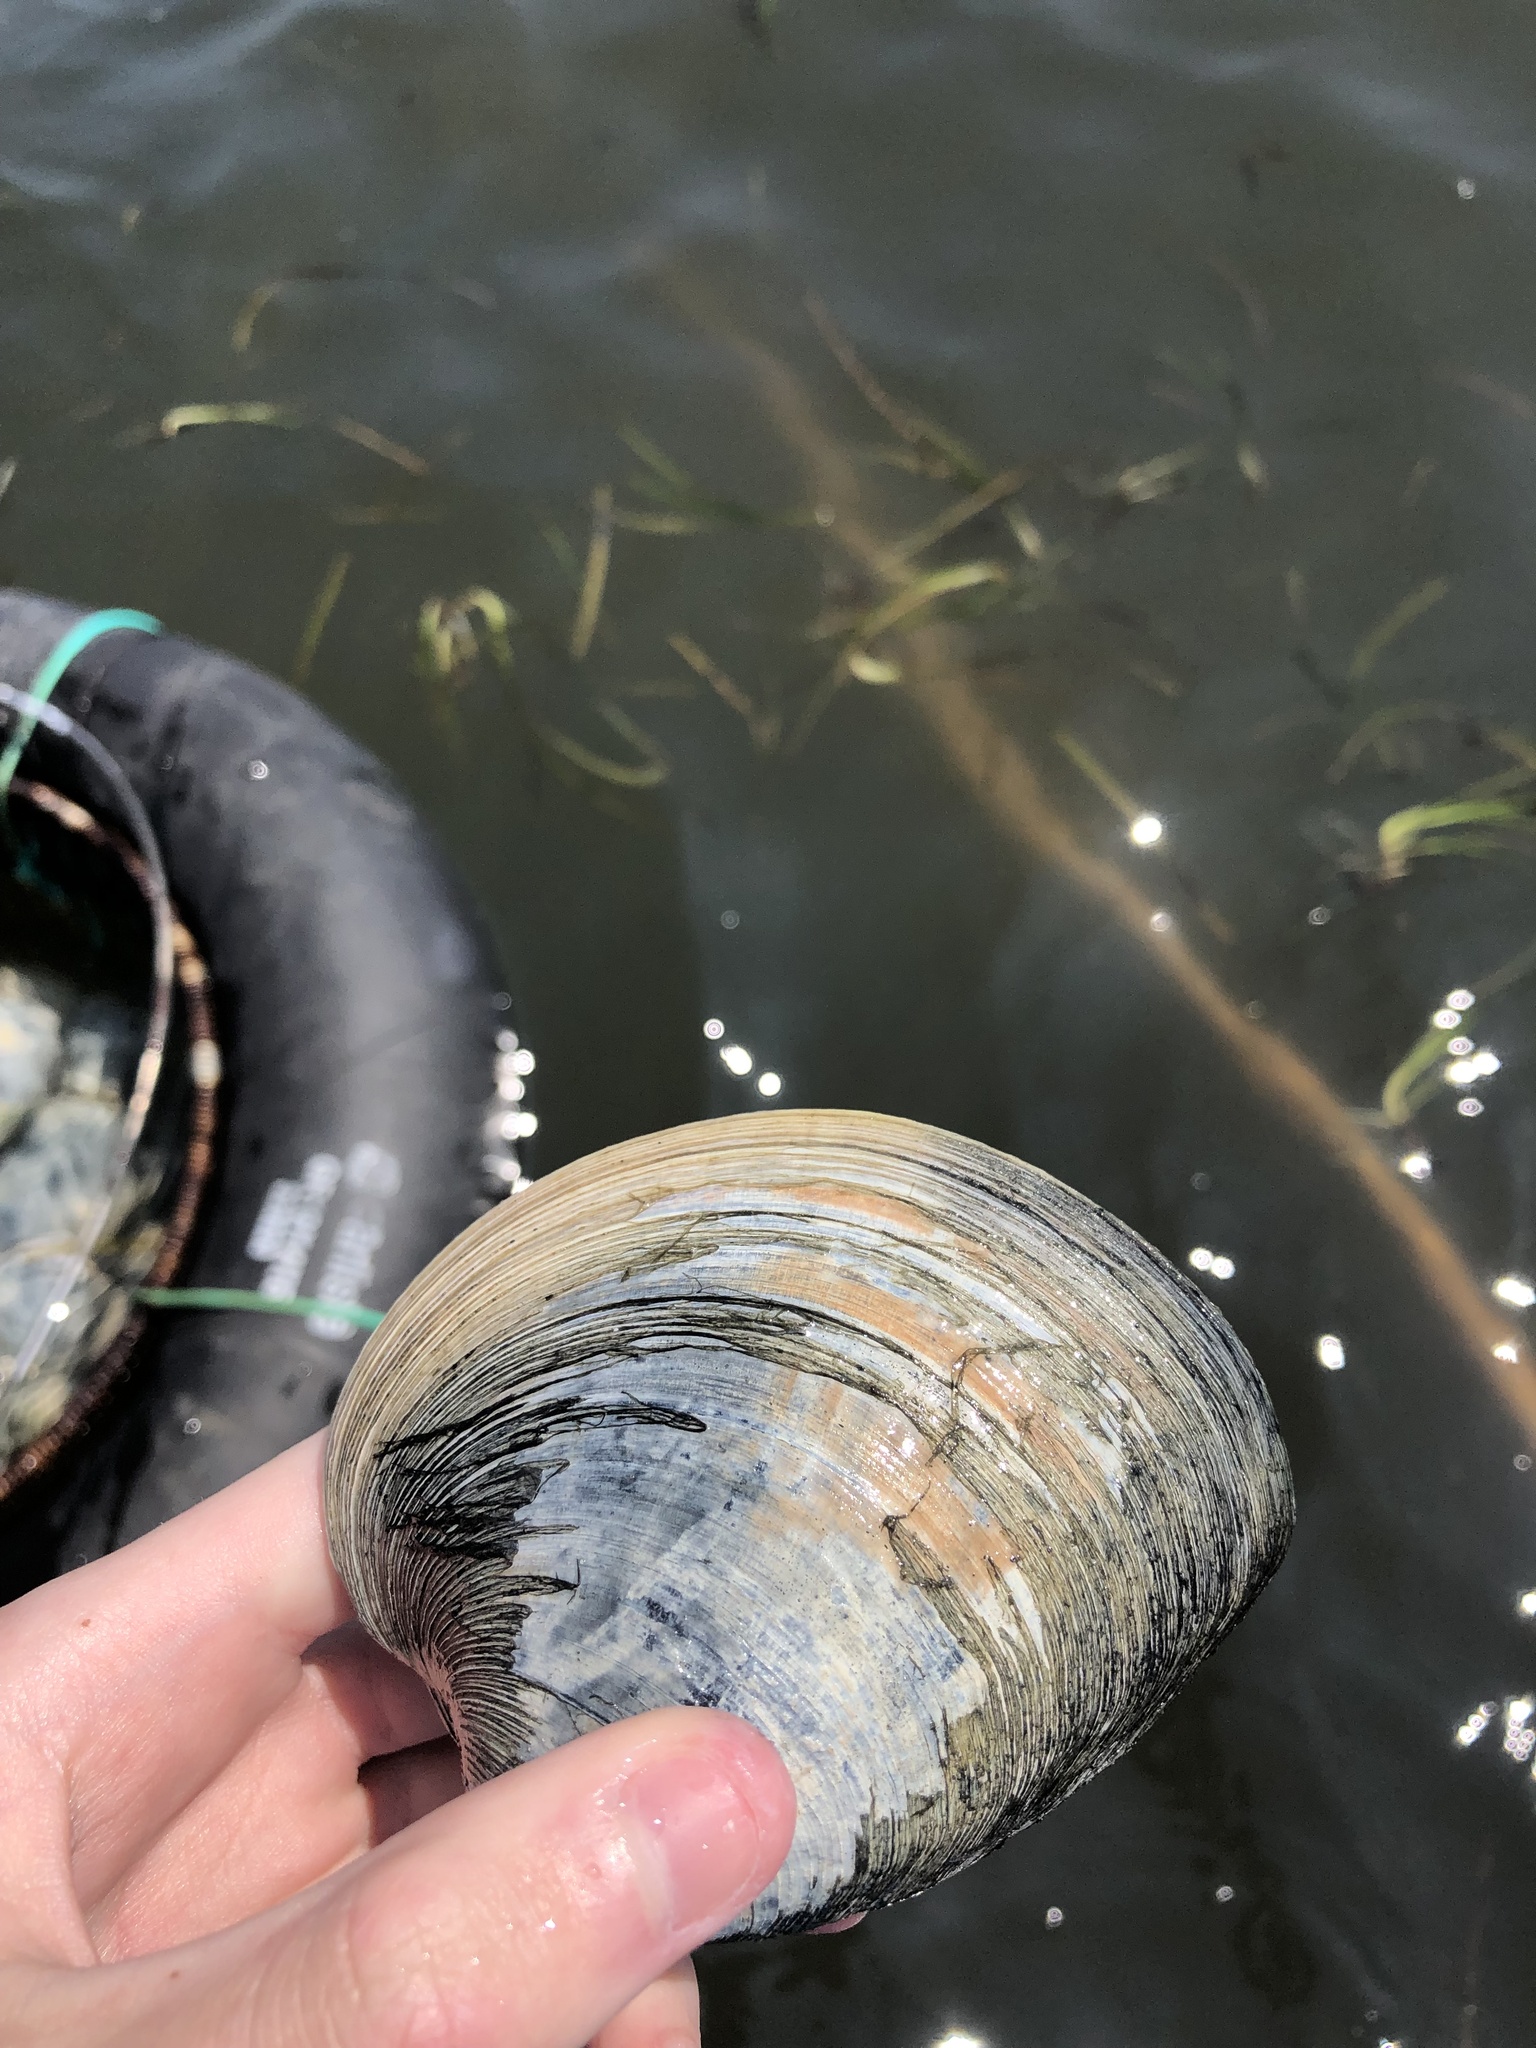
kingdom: Animalia
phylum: Mollusca
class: Bivalvia
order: Venerida
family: Veneridae
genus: Mercenaria
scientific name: Mercenaria mercenaria
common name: American hard-shelled clam
